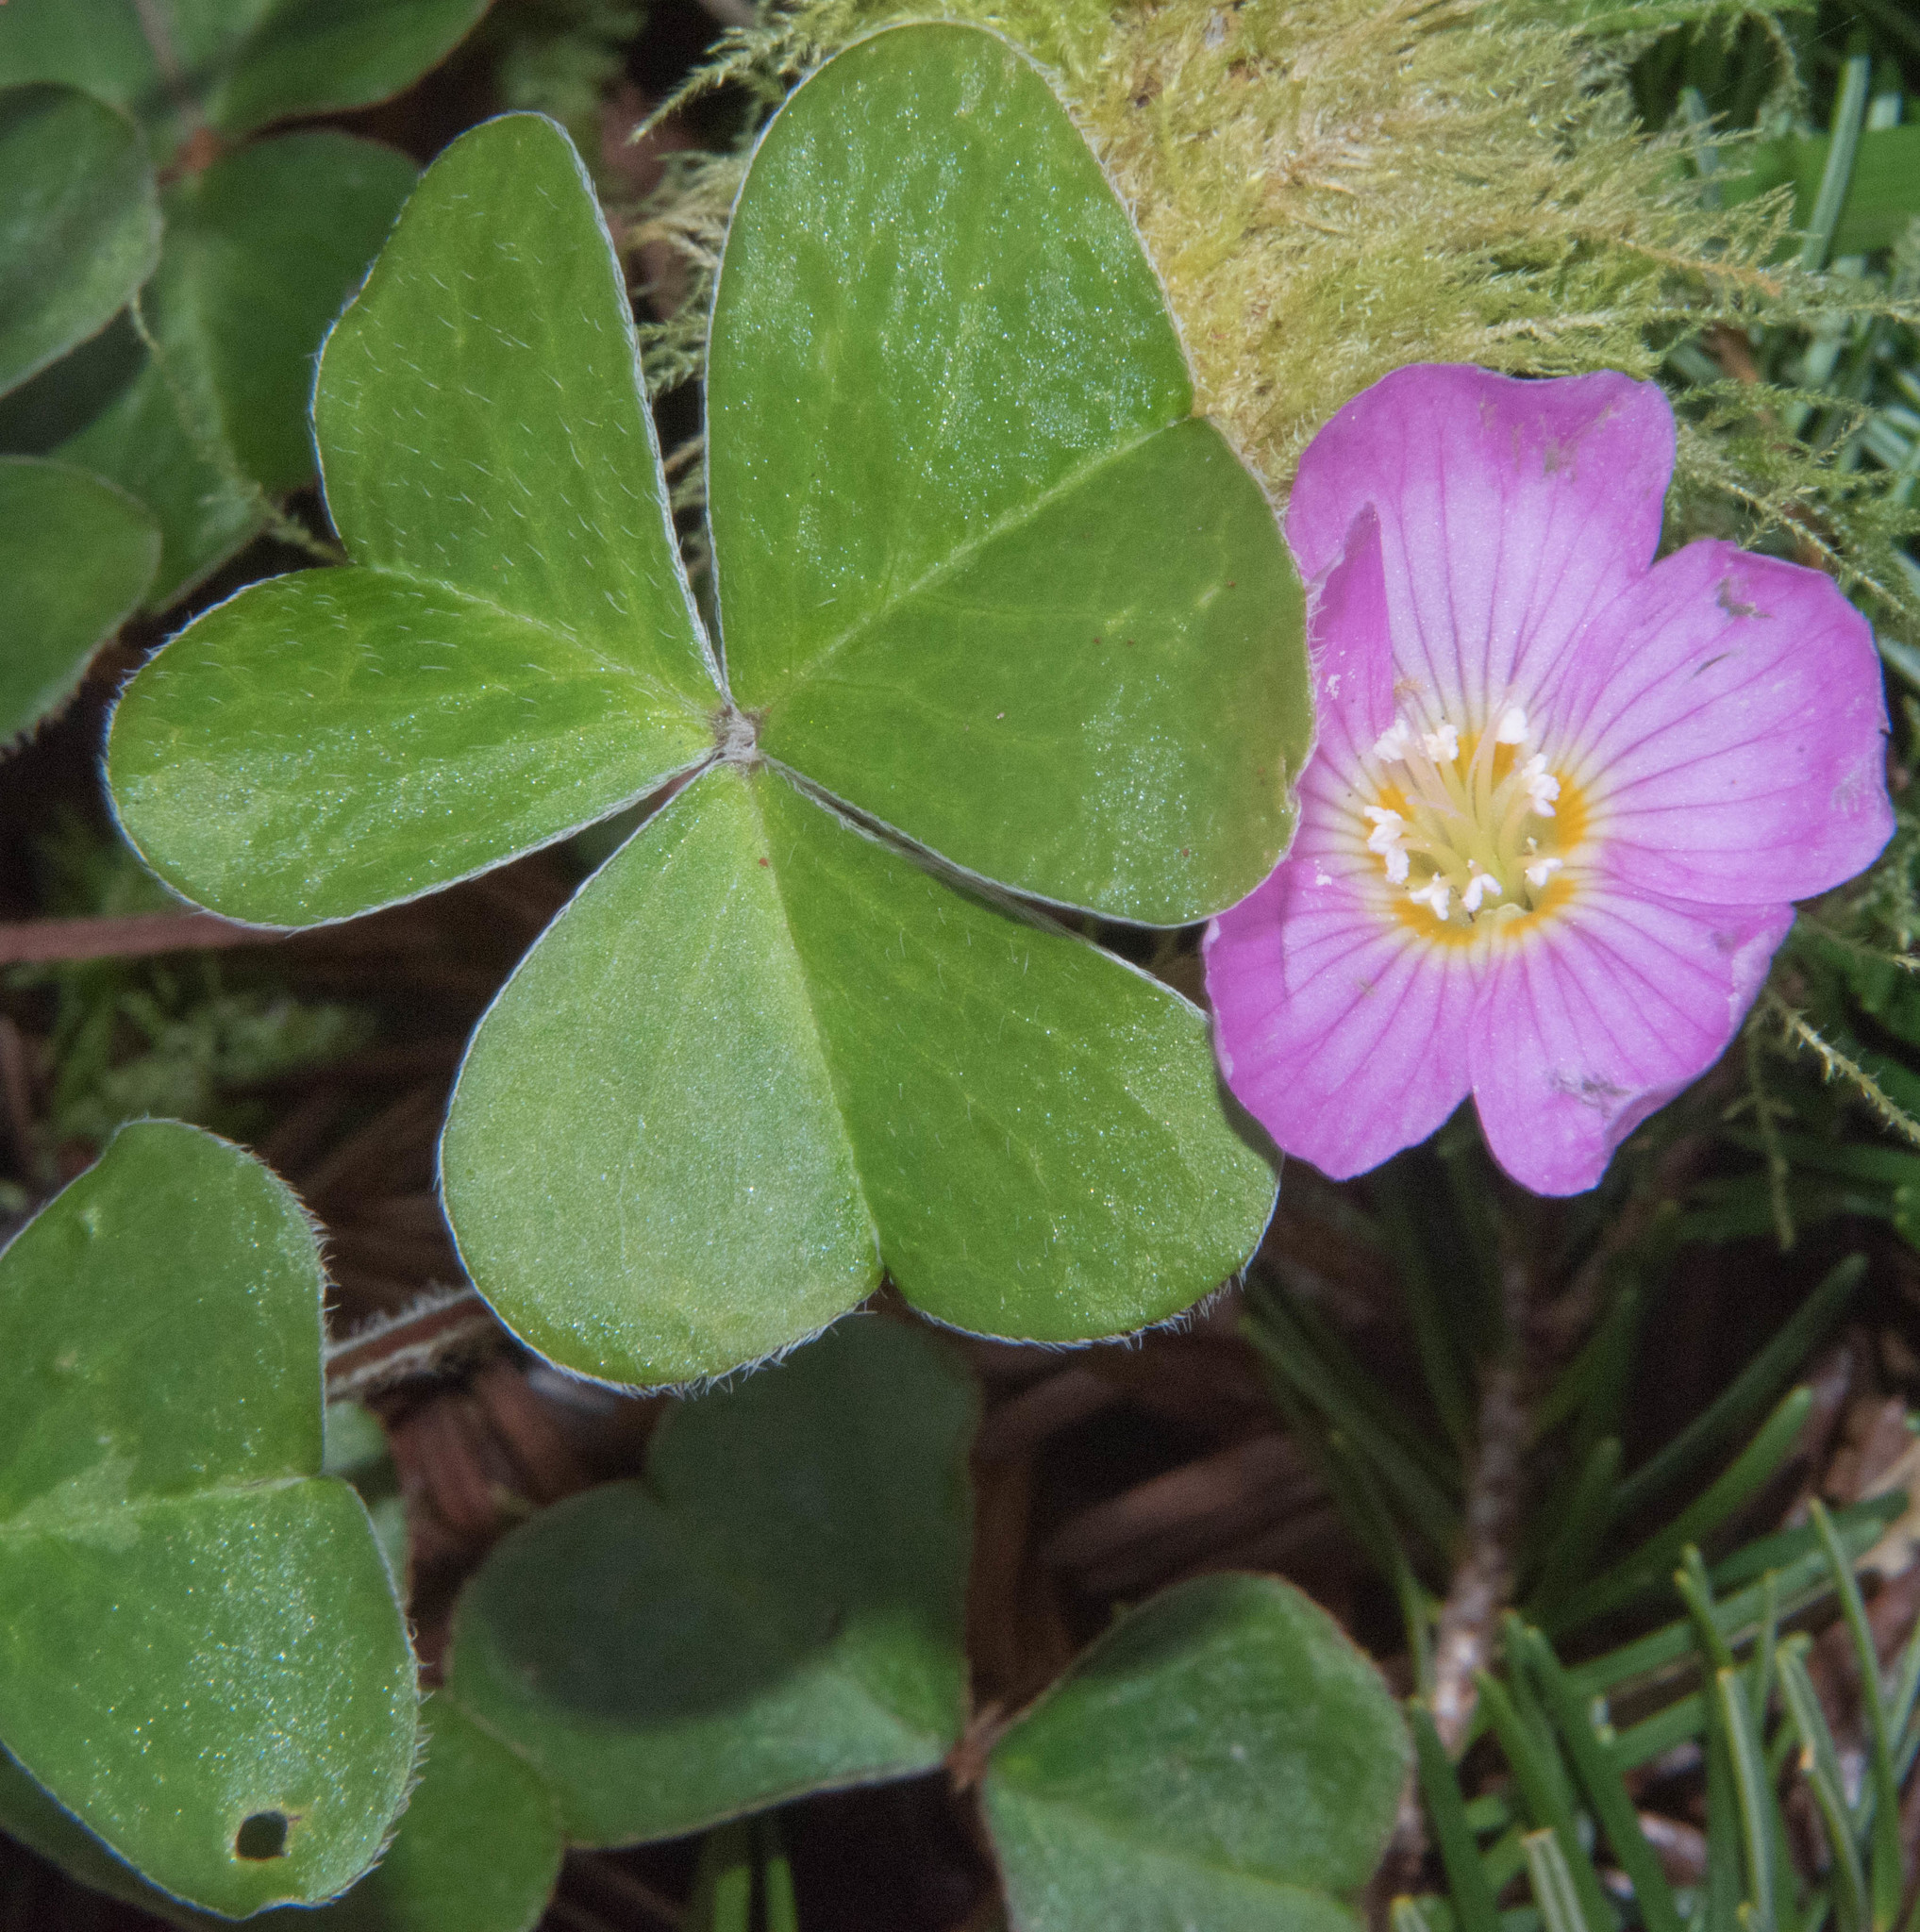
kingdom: Plantae
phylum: Tracheophyta
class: Magnoliopsida
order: Oxalidales
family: Oxalidaceae
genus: Oxalis
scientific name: Oxalis oregana
